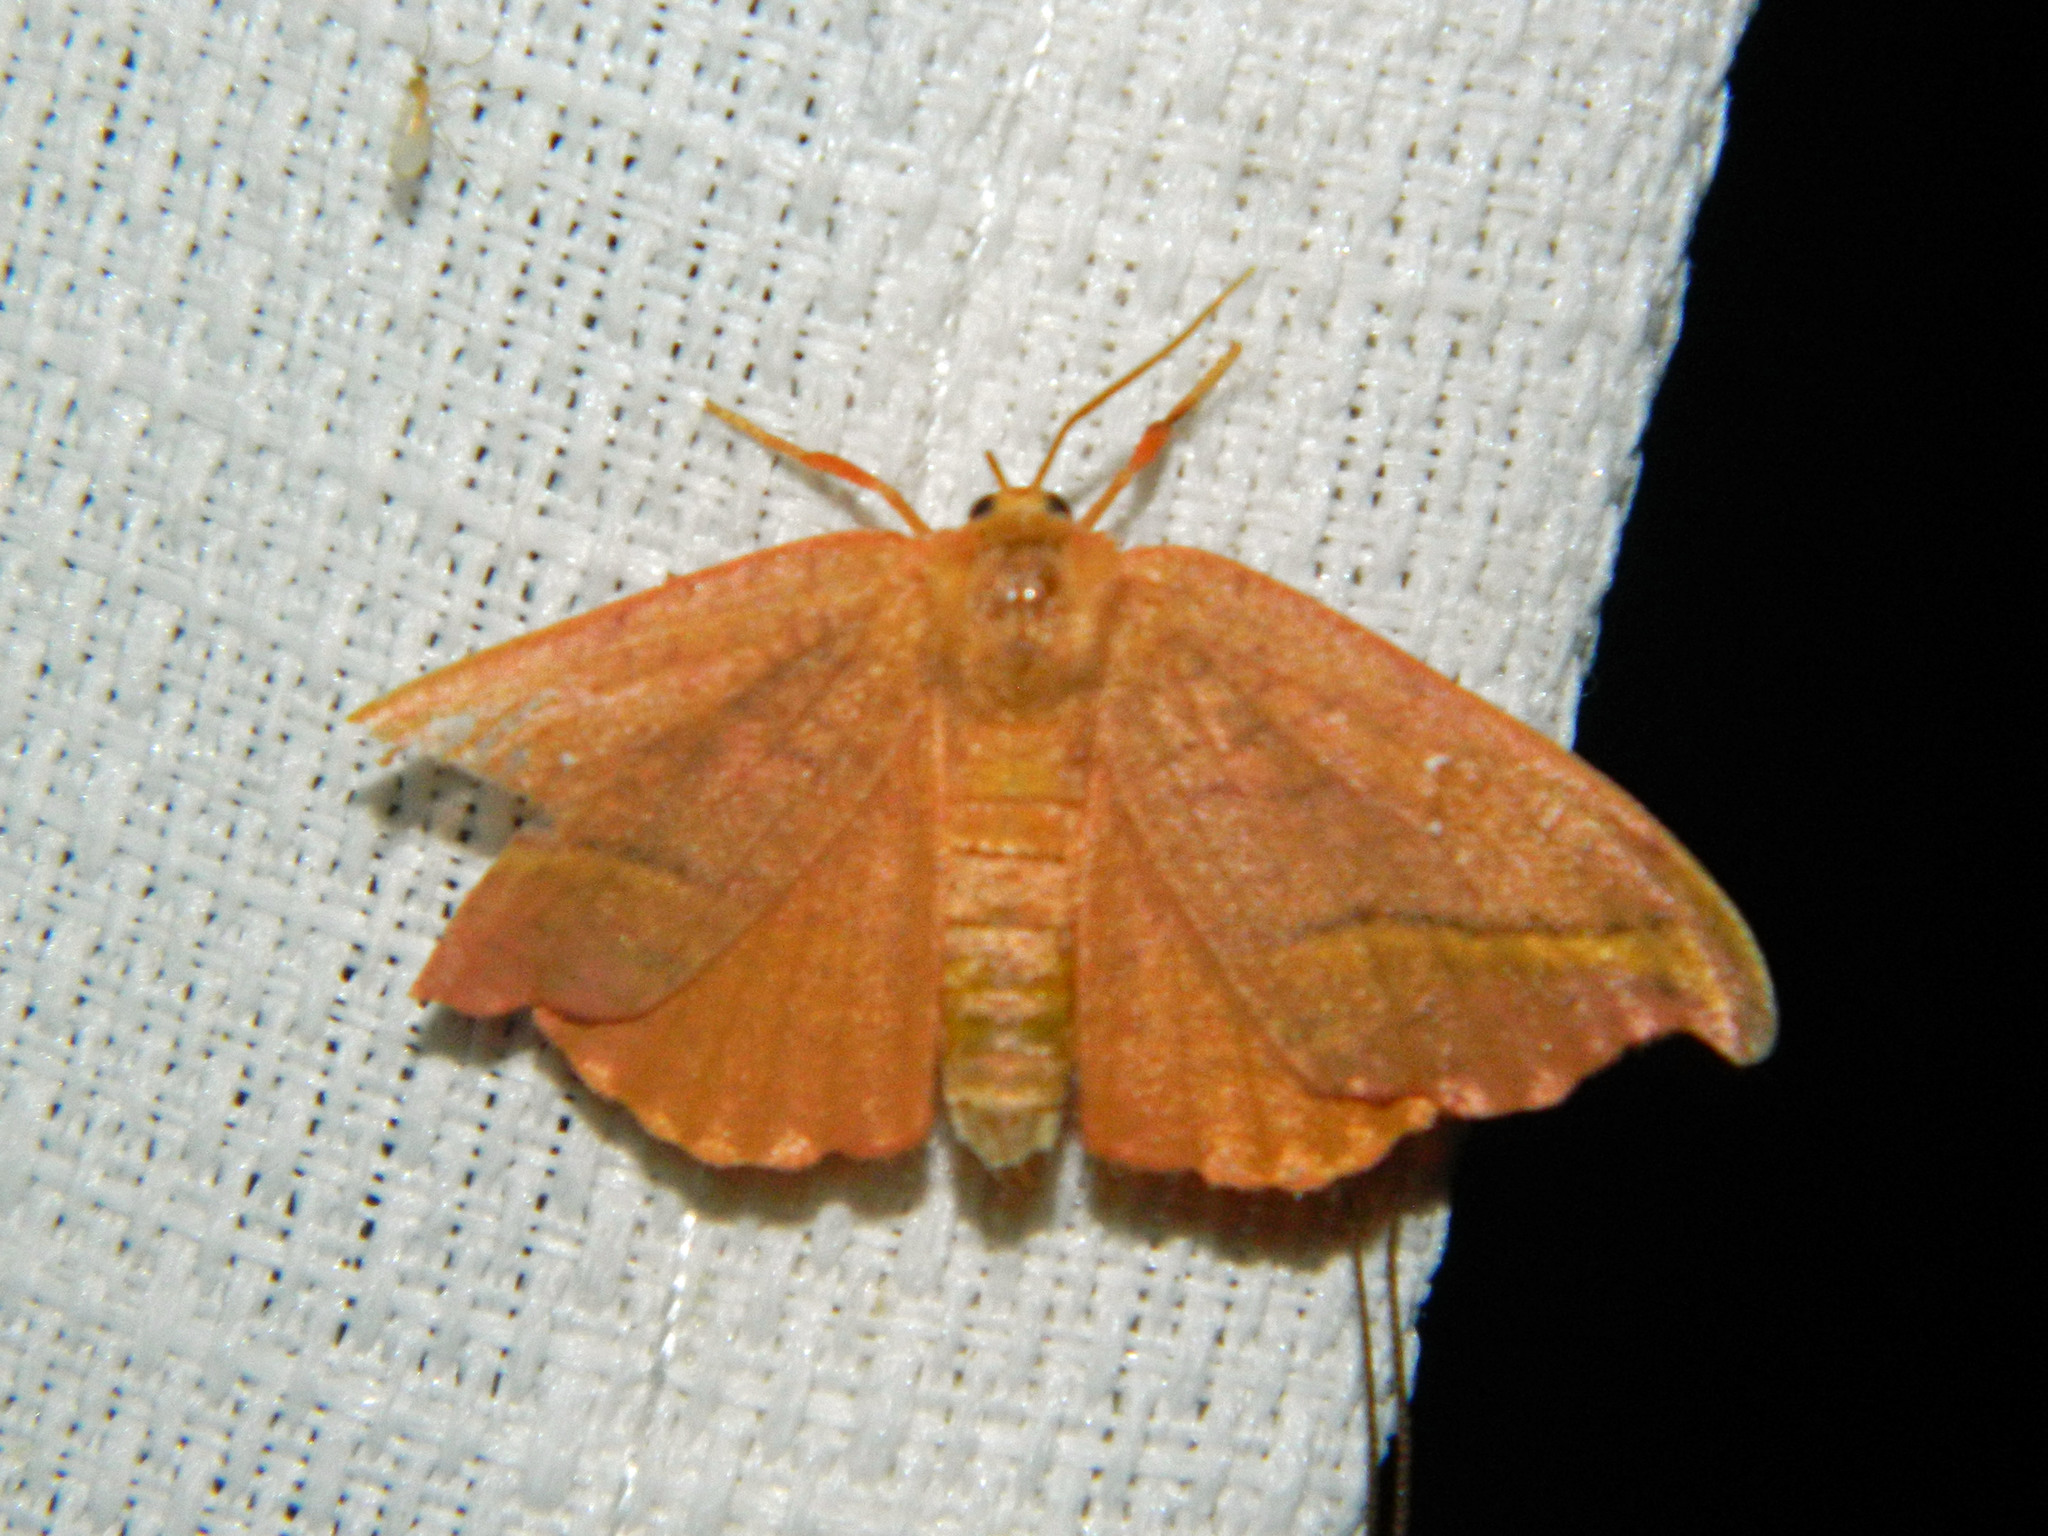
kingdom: Animalia
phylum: Arthropoda
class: Insecta
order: Lepidoptera
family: Drepanidae
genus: Oreta
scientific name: Oreta rosea
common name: Rose hooktip
